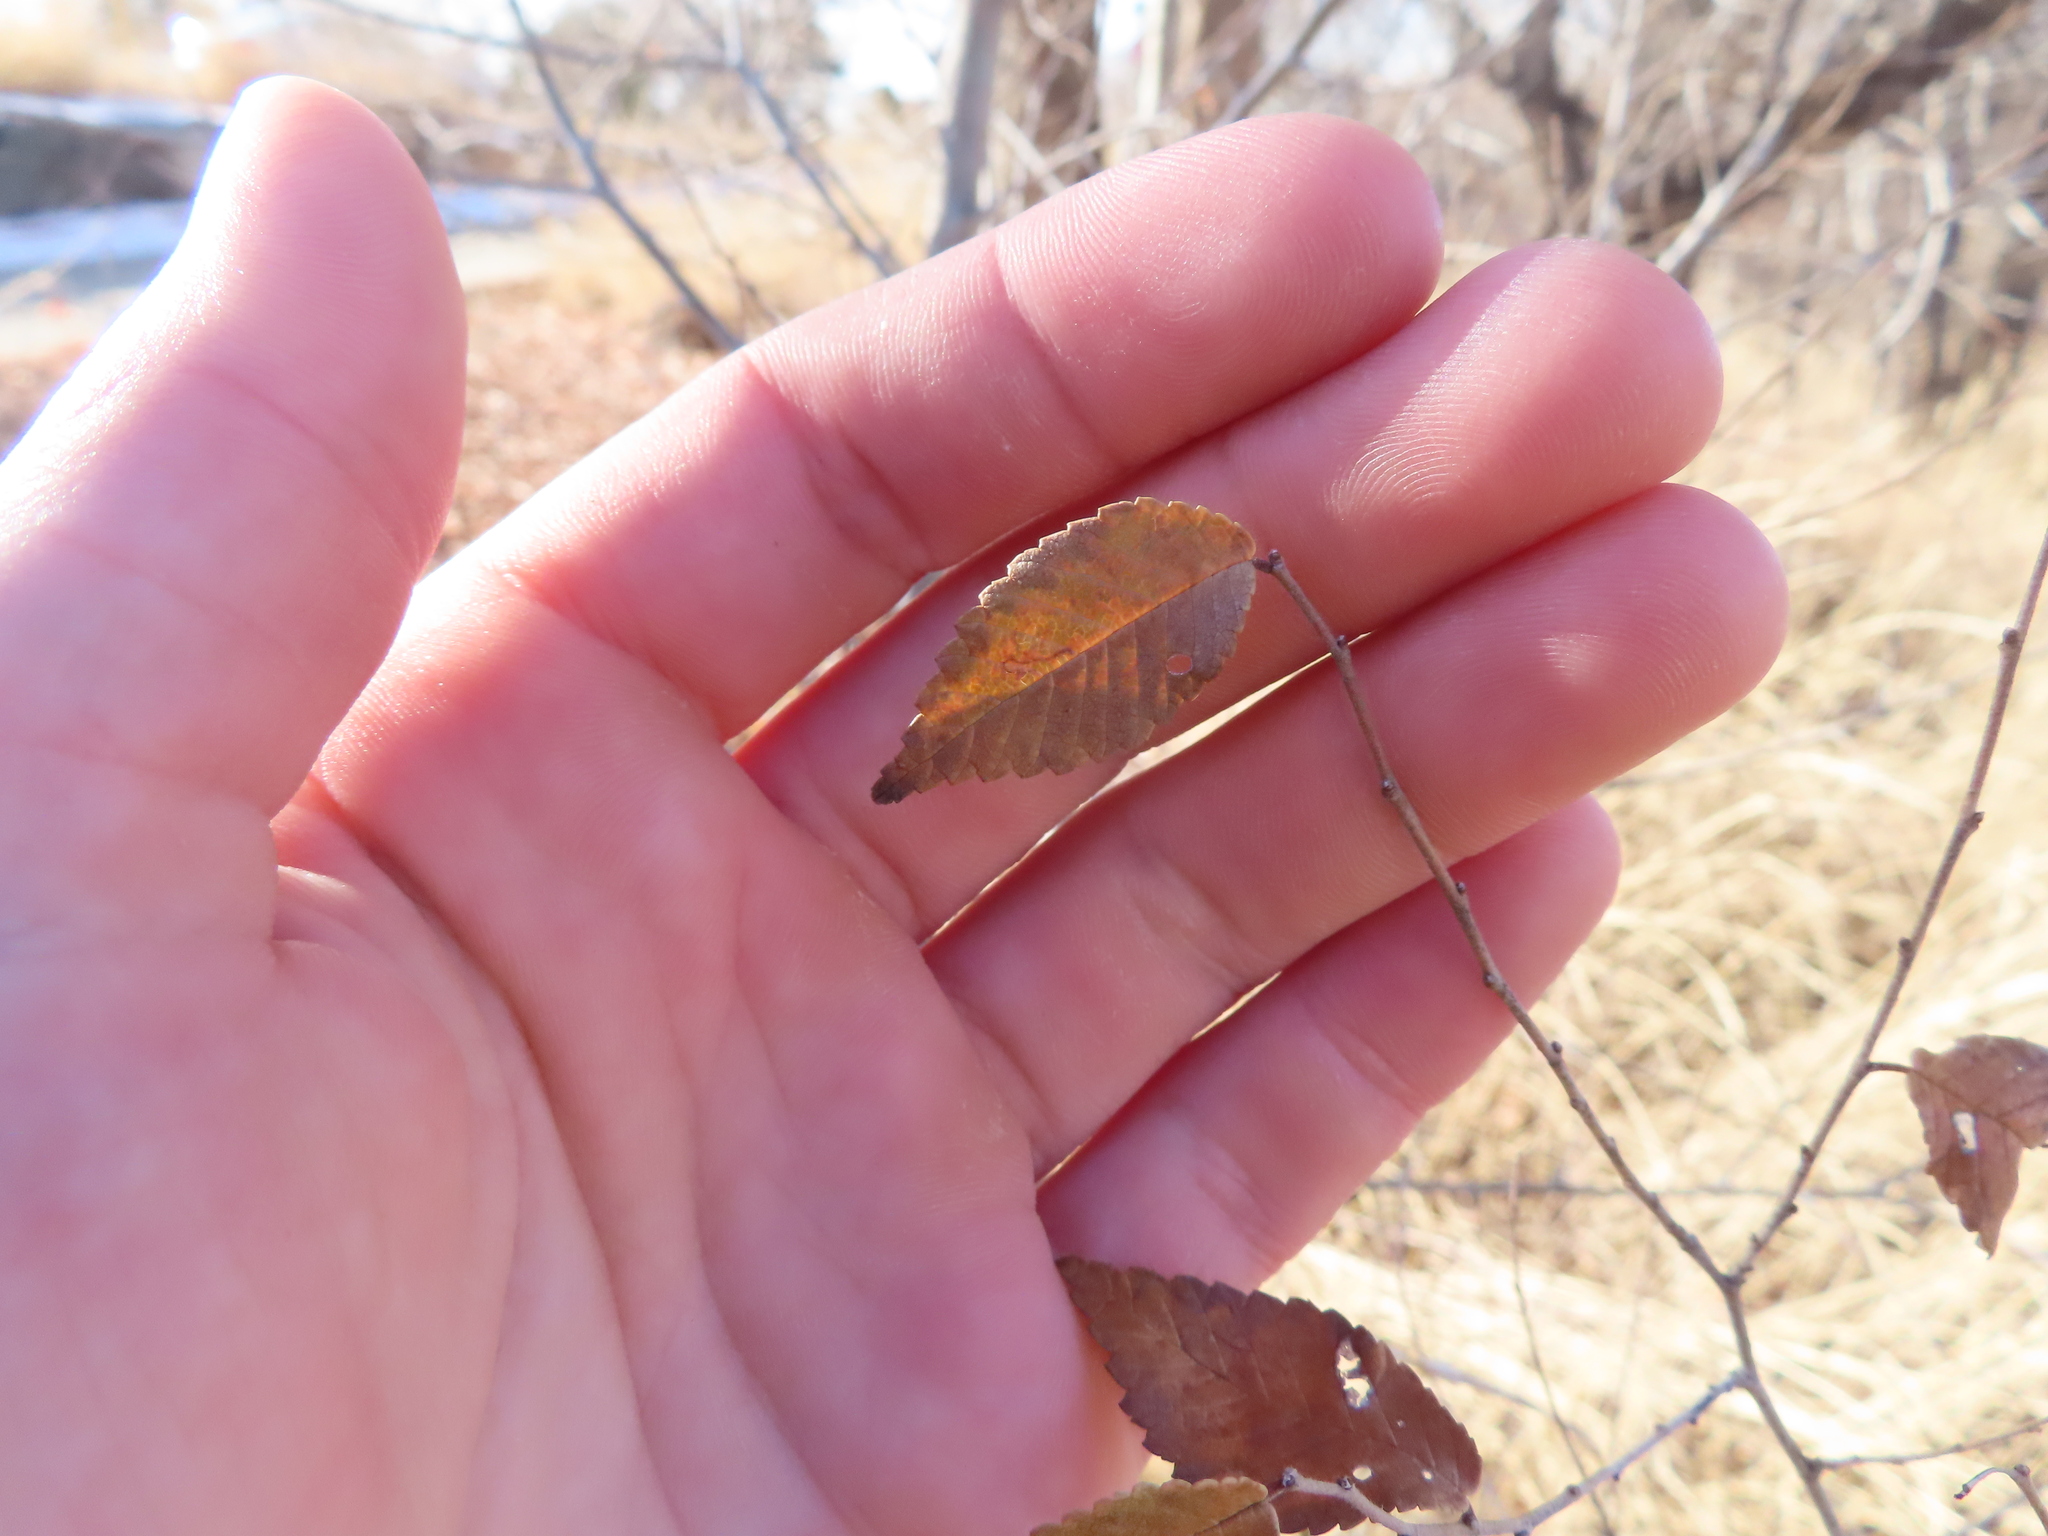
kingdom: Plantae
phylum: Tracheophyta
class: Magnoliopsida
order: Rosales
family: Ulmaceae
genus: Ulmus
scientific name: Ulmus pumila
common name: Siberian elm
